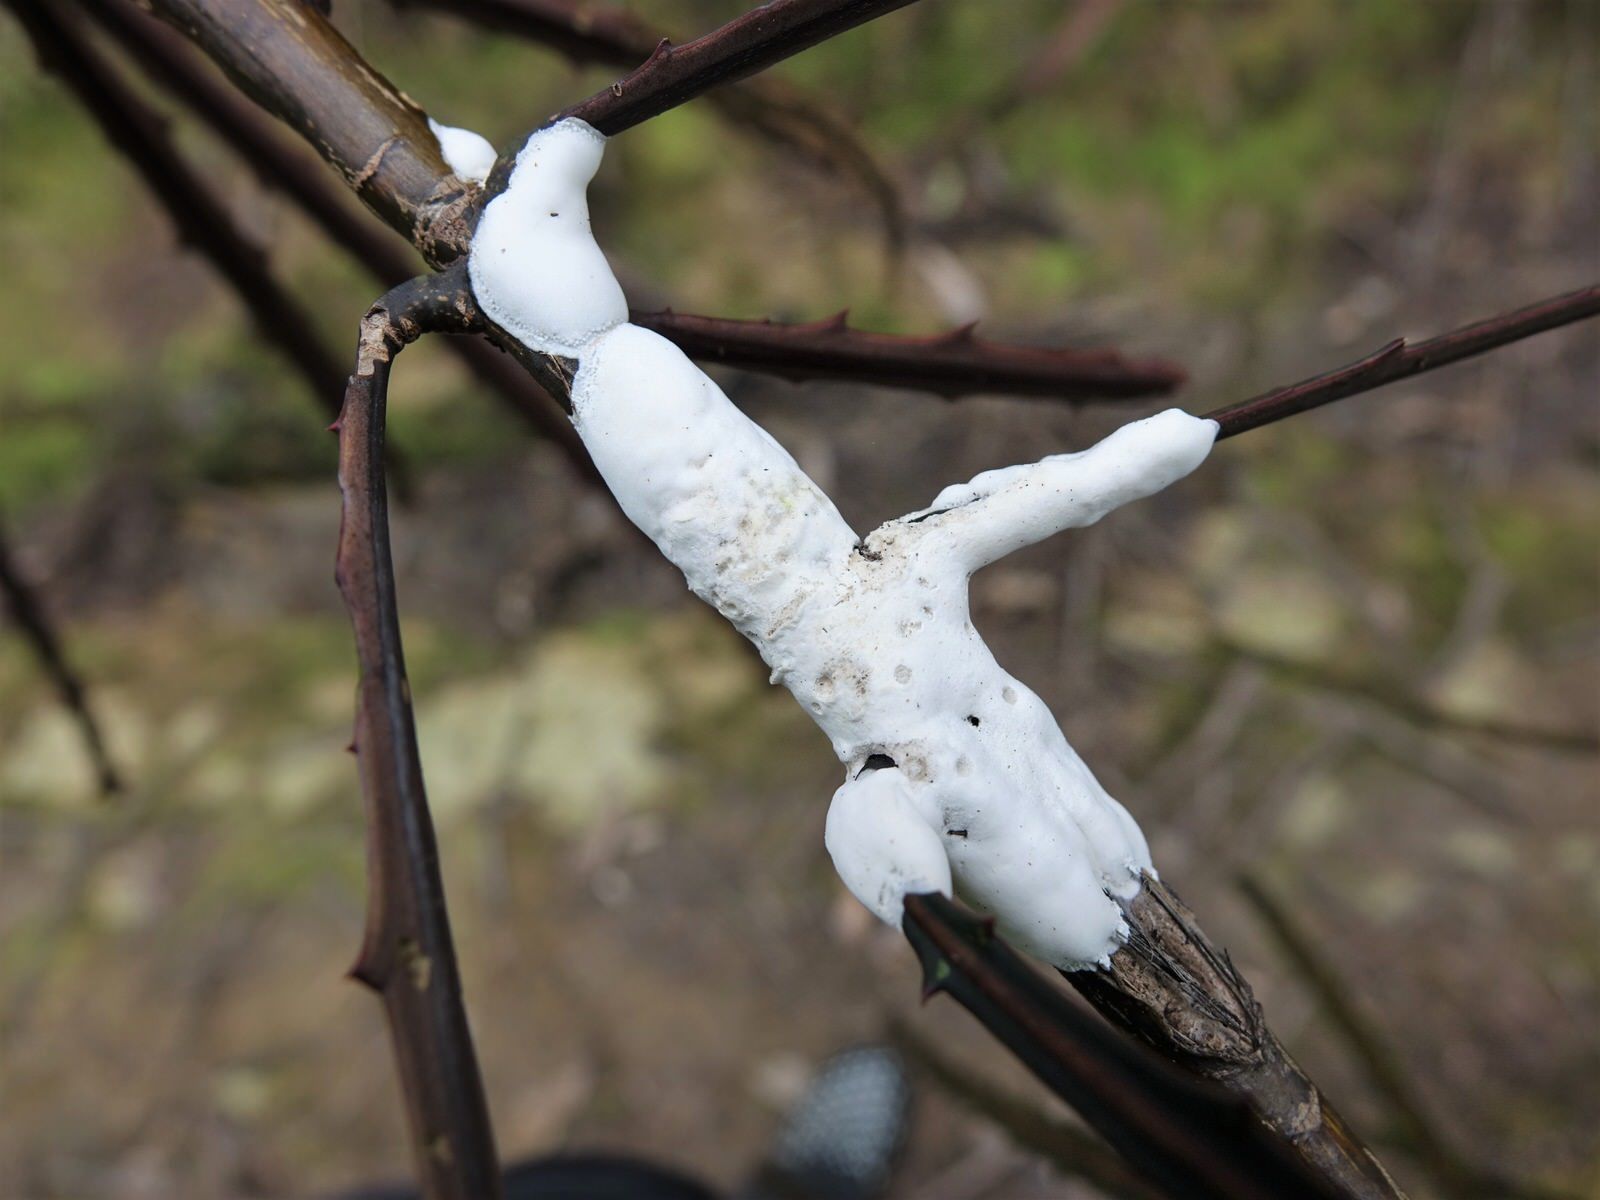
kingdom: Fungi
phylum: Basidiomycota
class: Pucciniomycetes
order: Septobasidiales
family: Septobasidiaceae
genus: Septobasidium
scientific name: Septobasidium simmondsii
